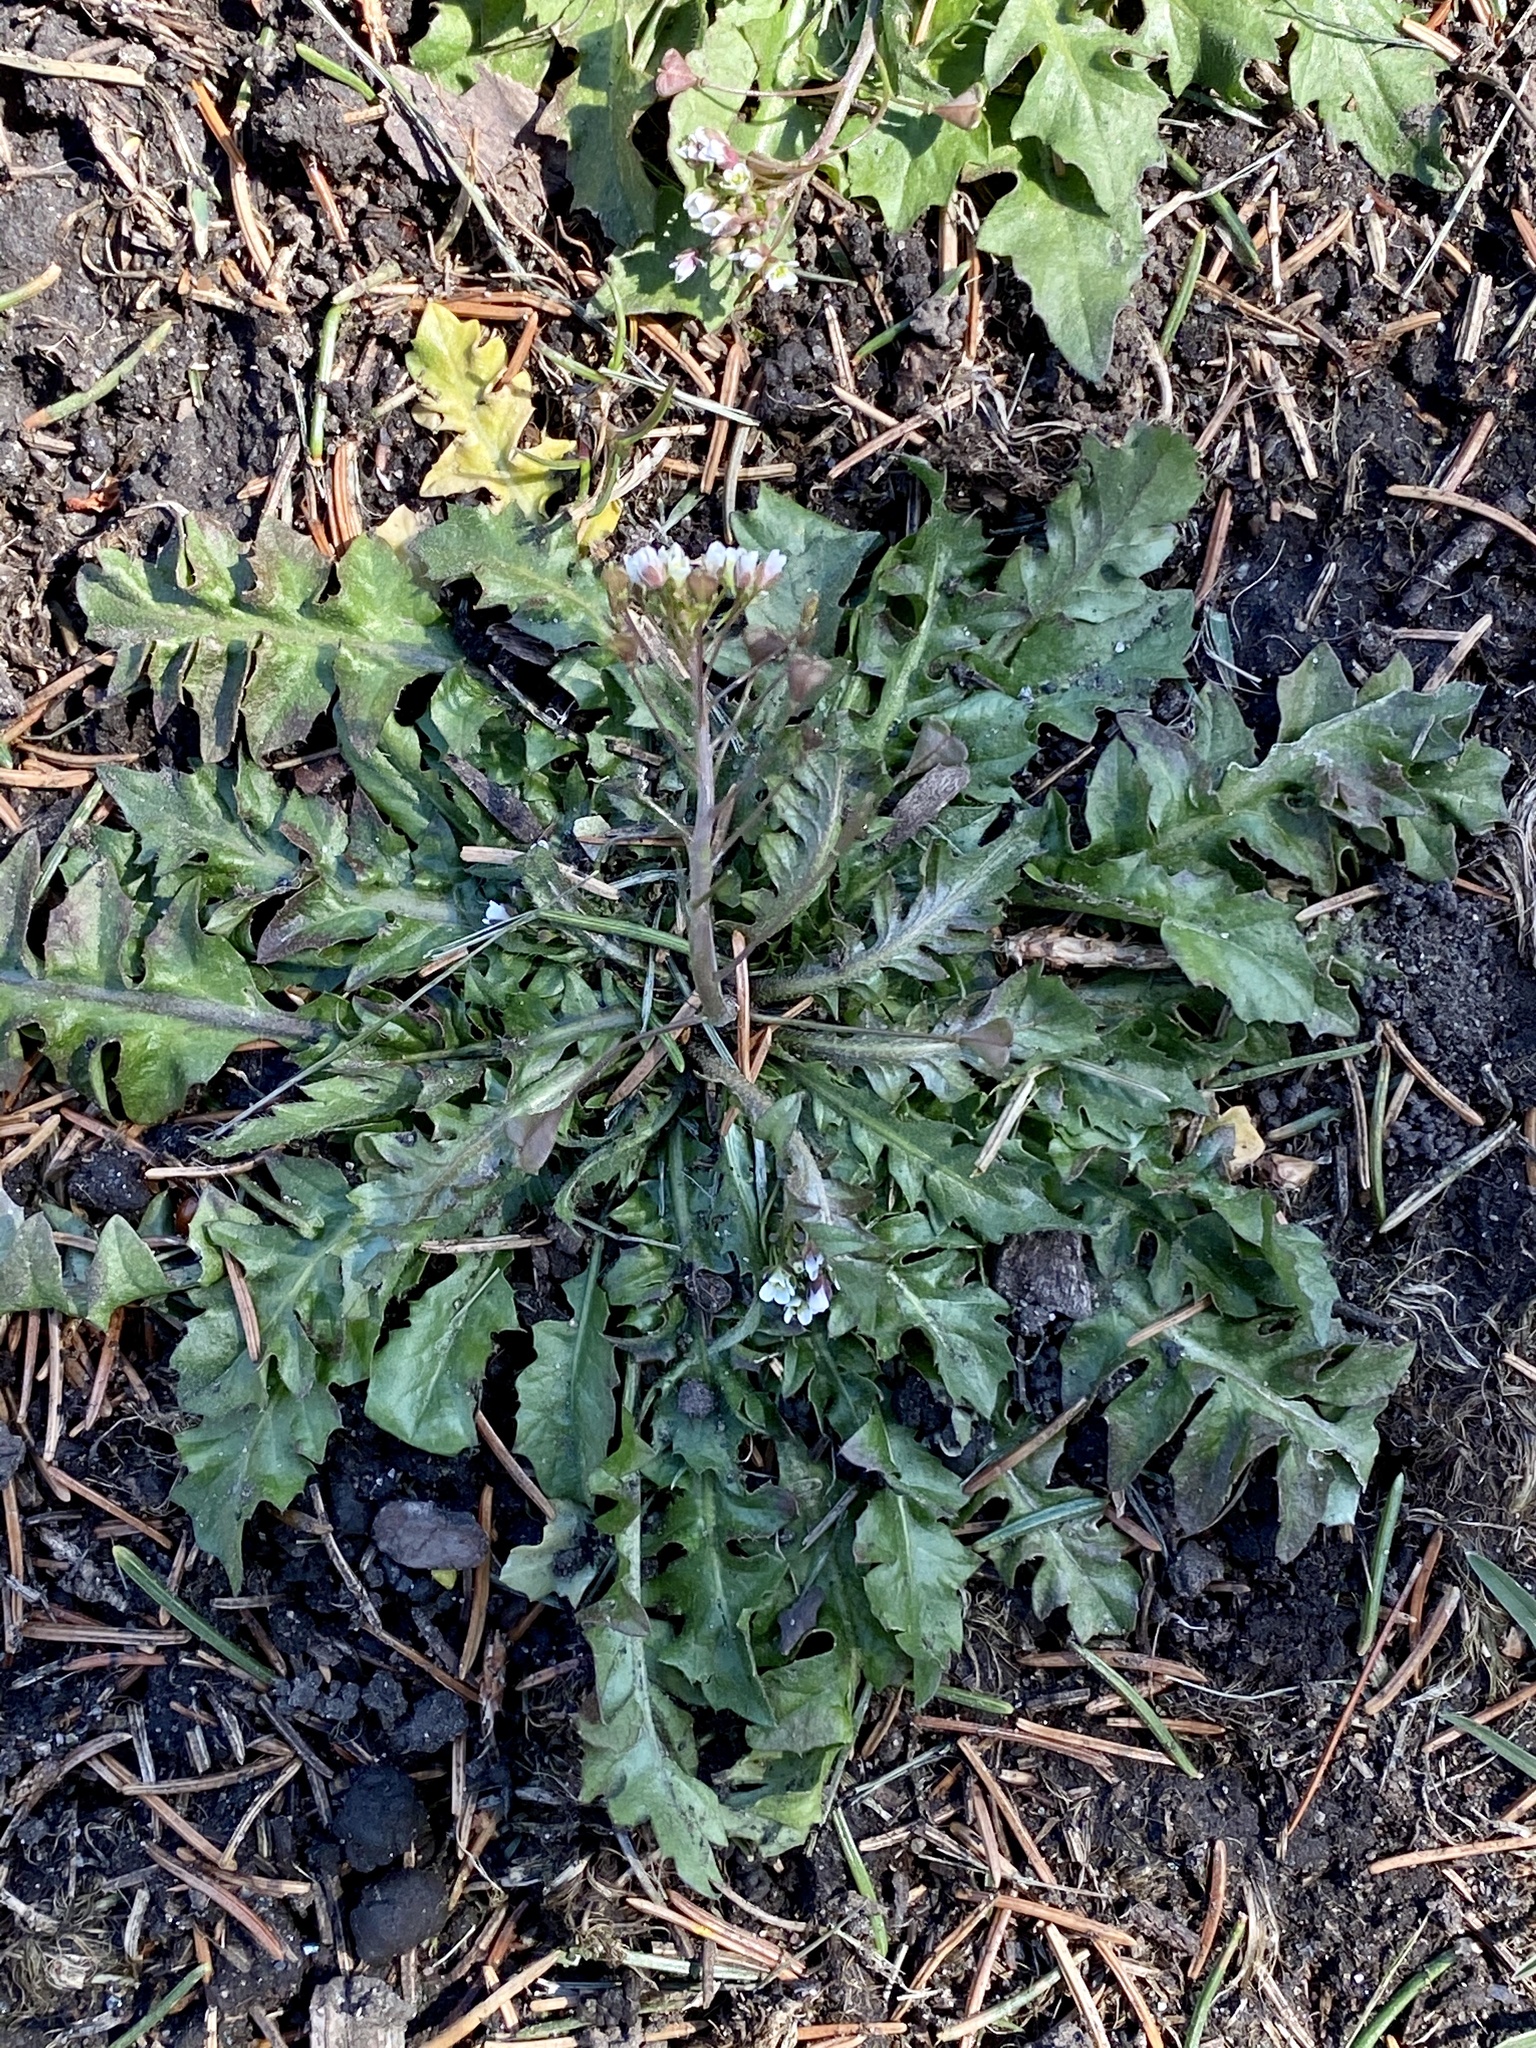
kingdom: Plantae
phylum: Tracheophyta
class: Magnoliopsida
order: Brassicales
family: Brassicaceae
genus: Capsella
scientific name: Capsella bursa-pastoris
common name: Shepherd's purse
